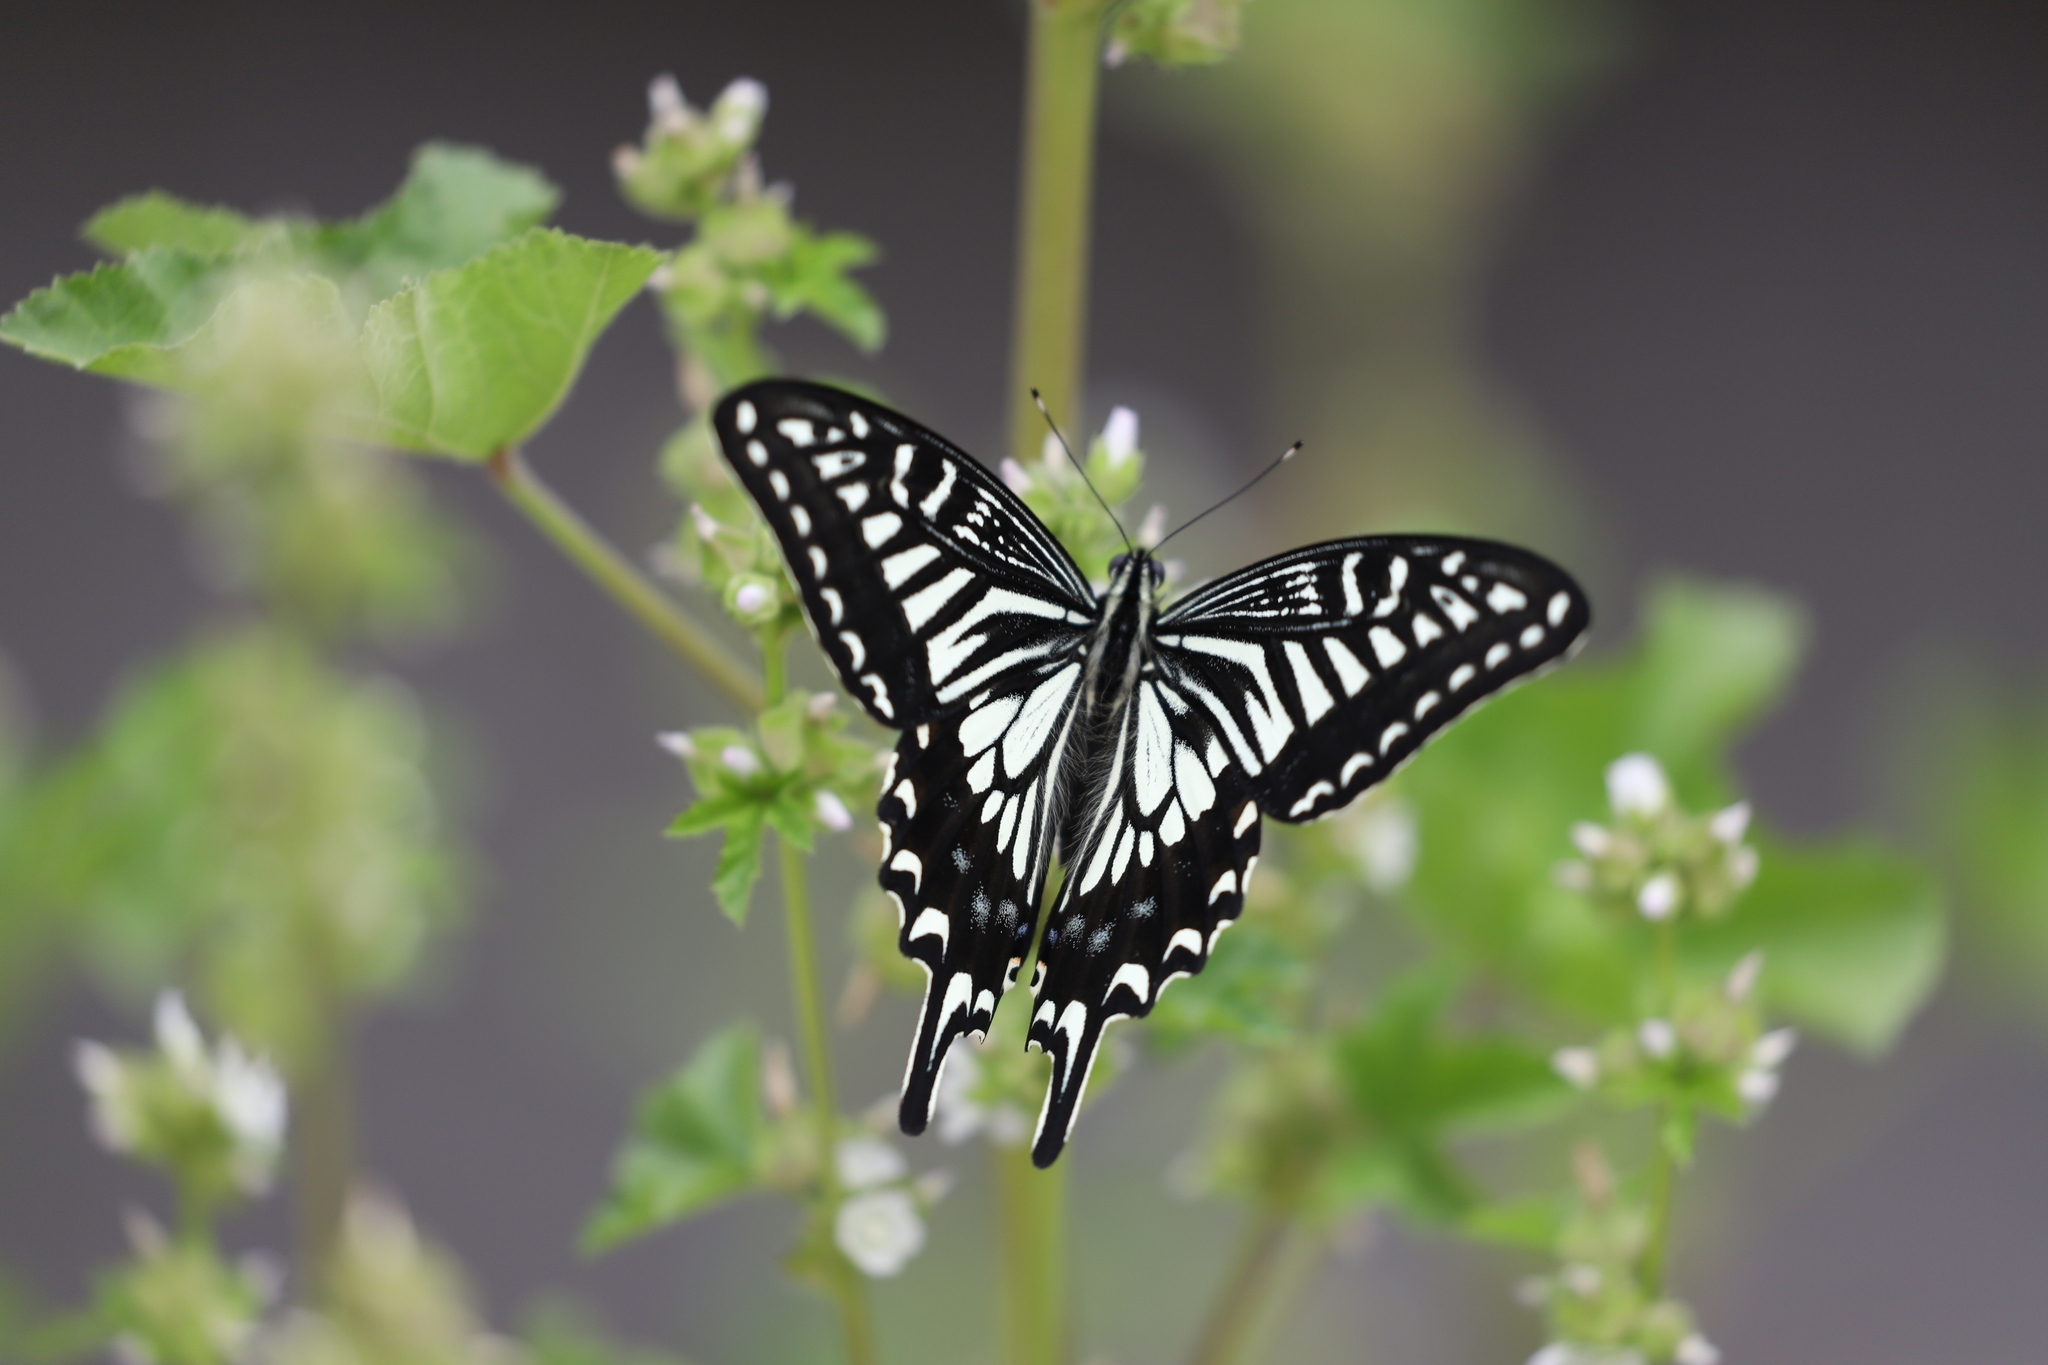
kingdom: Animalia
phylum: Arthropoda
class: Insecta
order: Lepidoptera
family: Papilionidae
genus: Papilio
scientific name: Papilio xuthus
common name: Asian swallowtail
